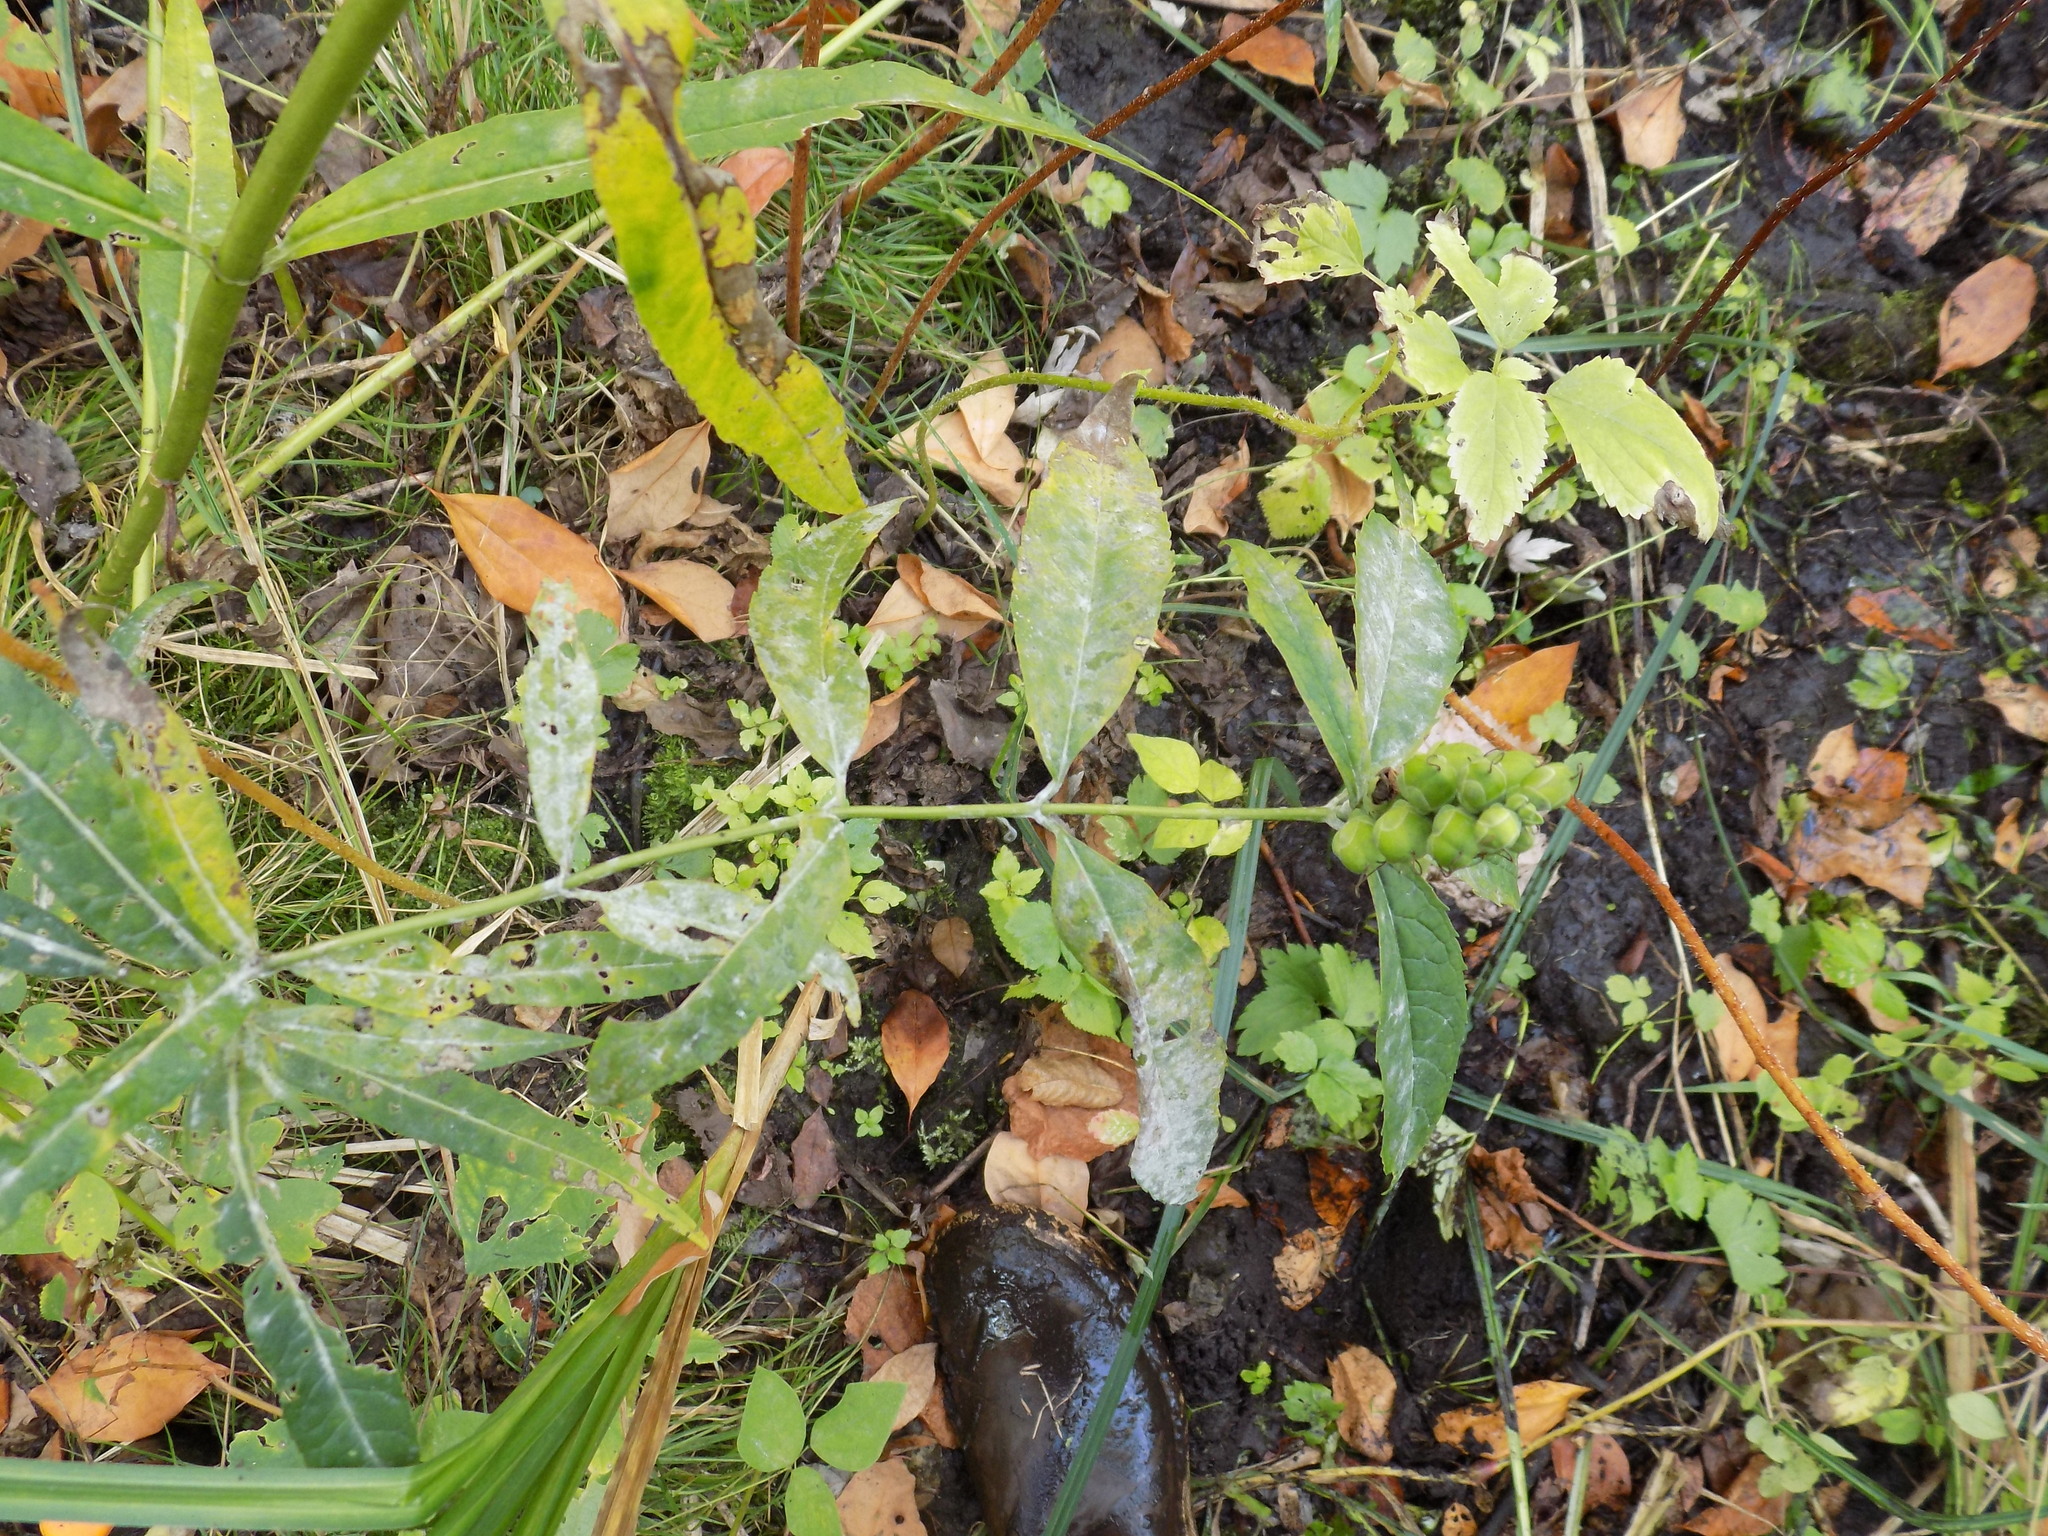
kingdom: Plantae
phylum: Tracheophyta
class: Magnoliopsida
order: Lamiales
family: Plantaginaceae
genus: Chelone
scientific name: Chelone glabra
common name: Snakehead
